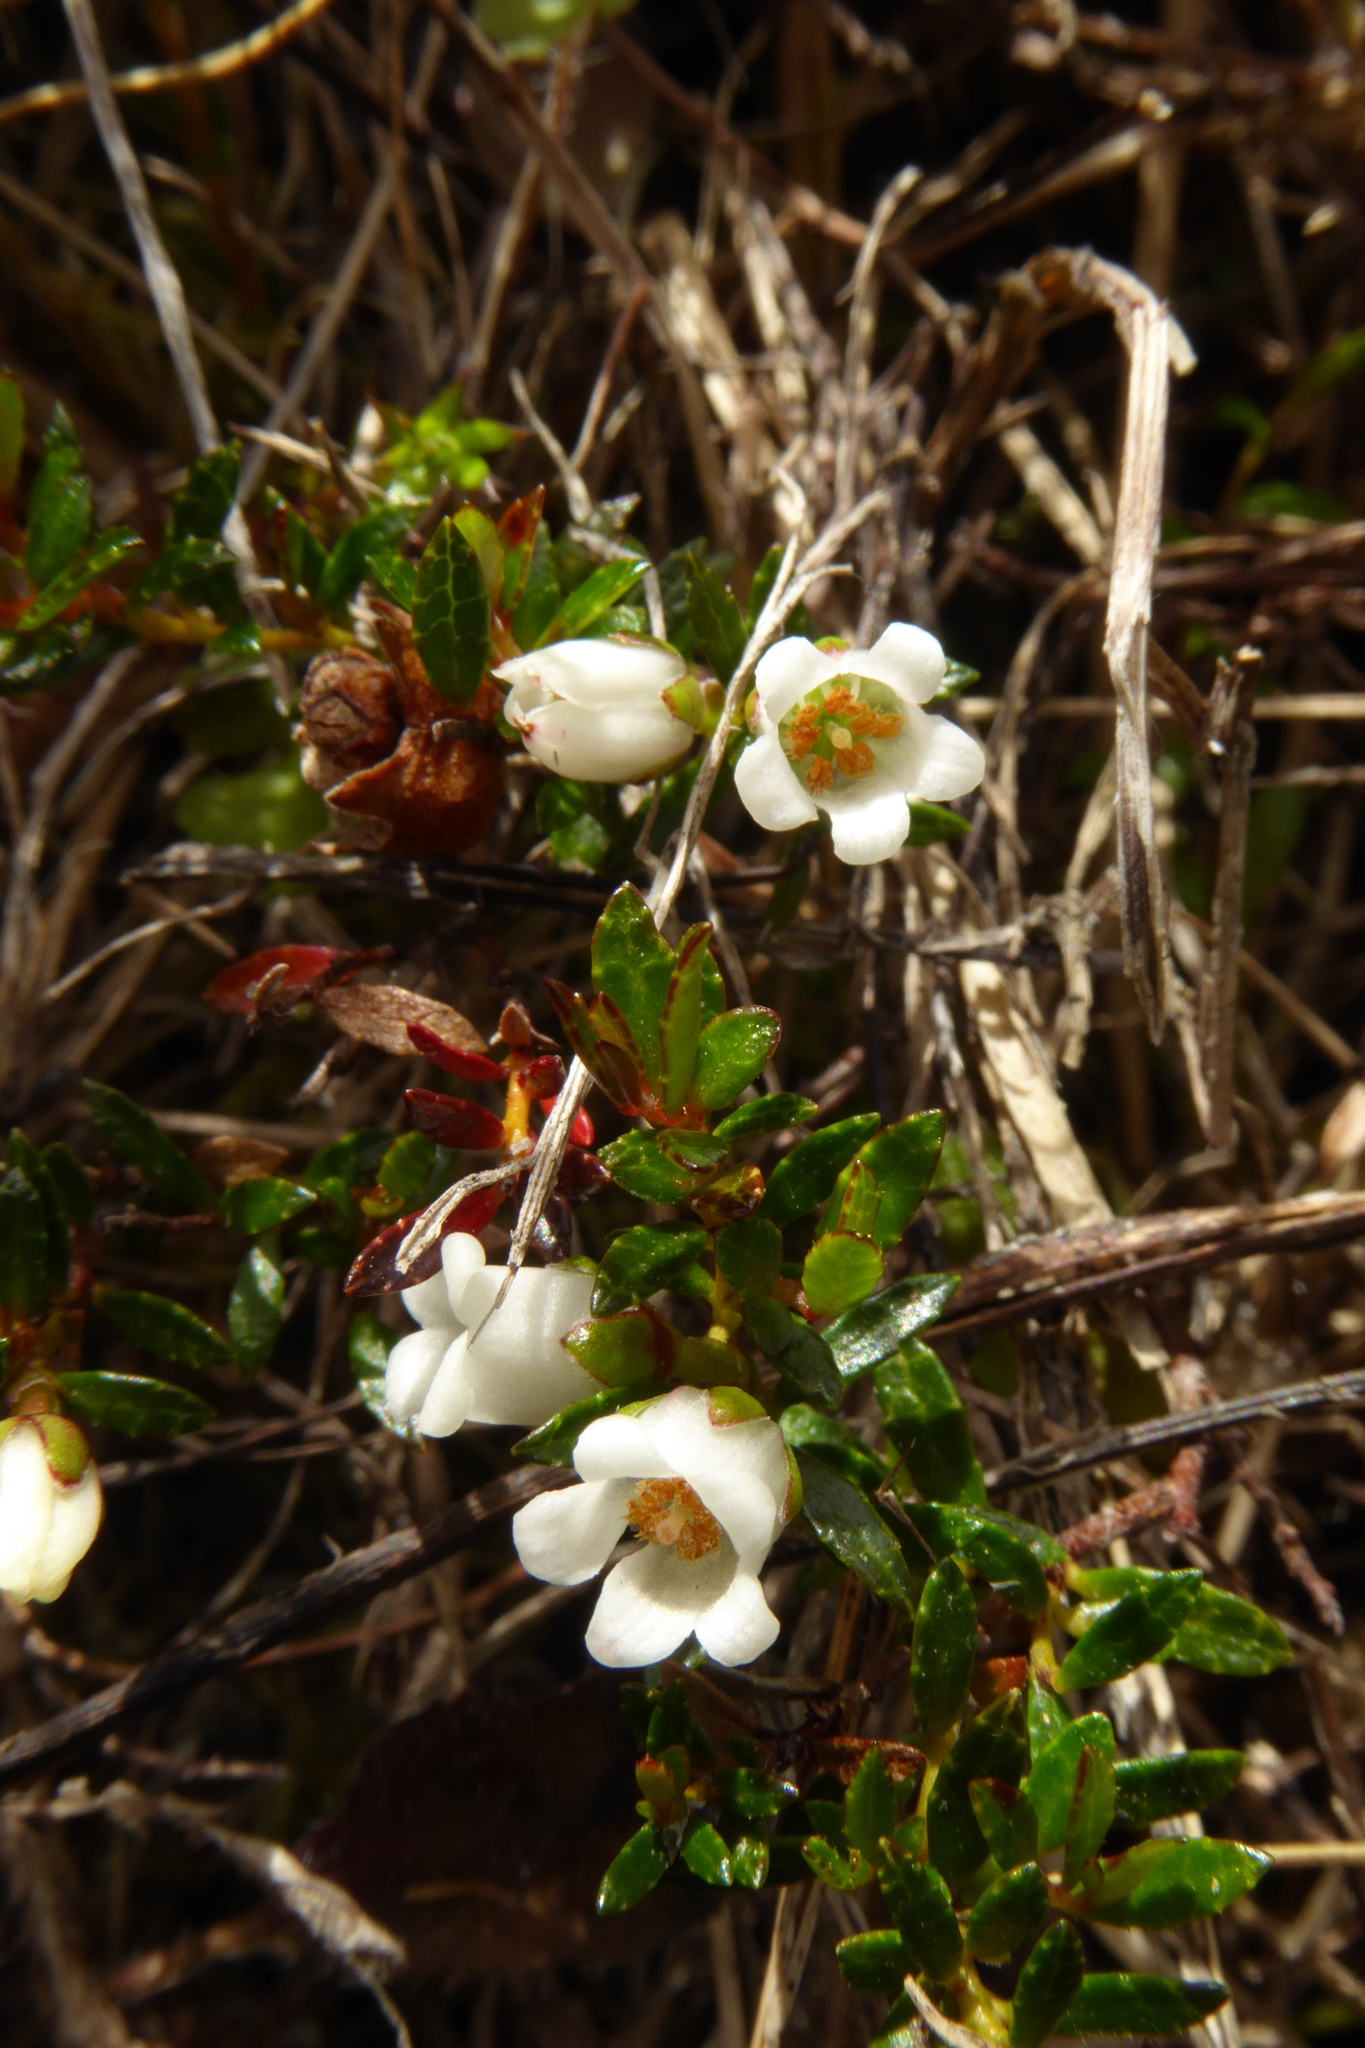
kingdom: Plantae
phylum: Tracheophyta
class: Magnoliopsida
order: Ericales
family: Ericaceae
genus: Gaultheria
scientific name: Gaultheria macrostigma
